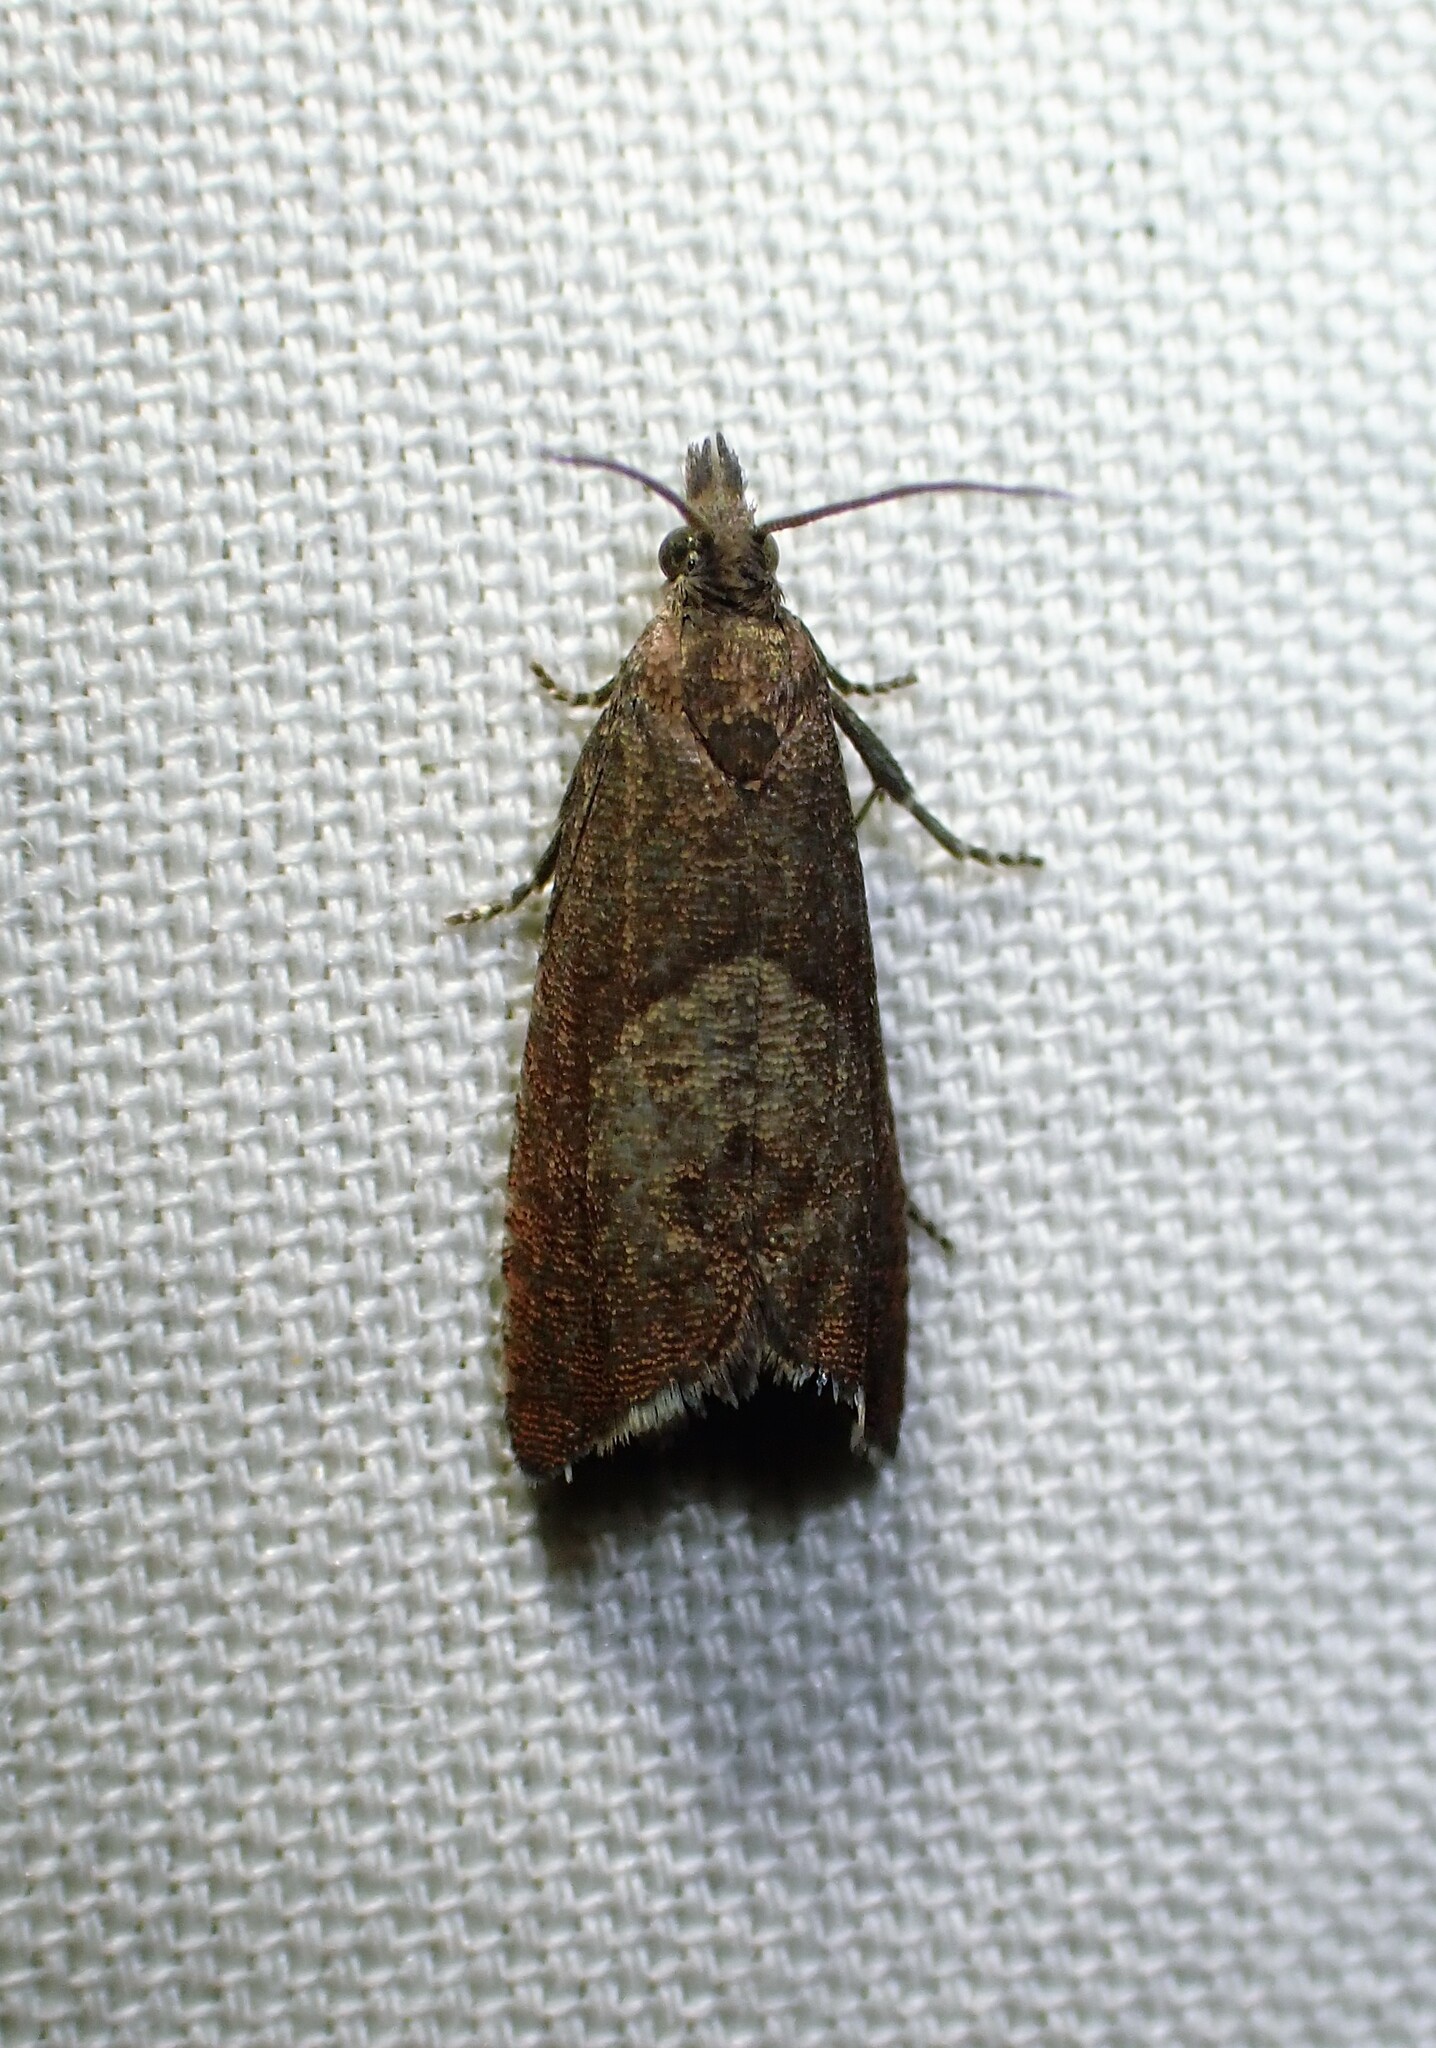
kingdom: Animalia
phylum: Arthropoda
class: Insecta
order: Lepidoptera
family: Tortricidae
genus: Dichrorampha
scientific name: Dichrorampha acuminatana
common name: Sharp-winged drill
